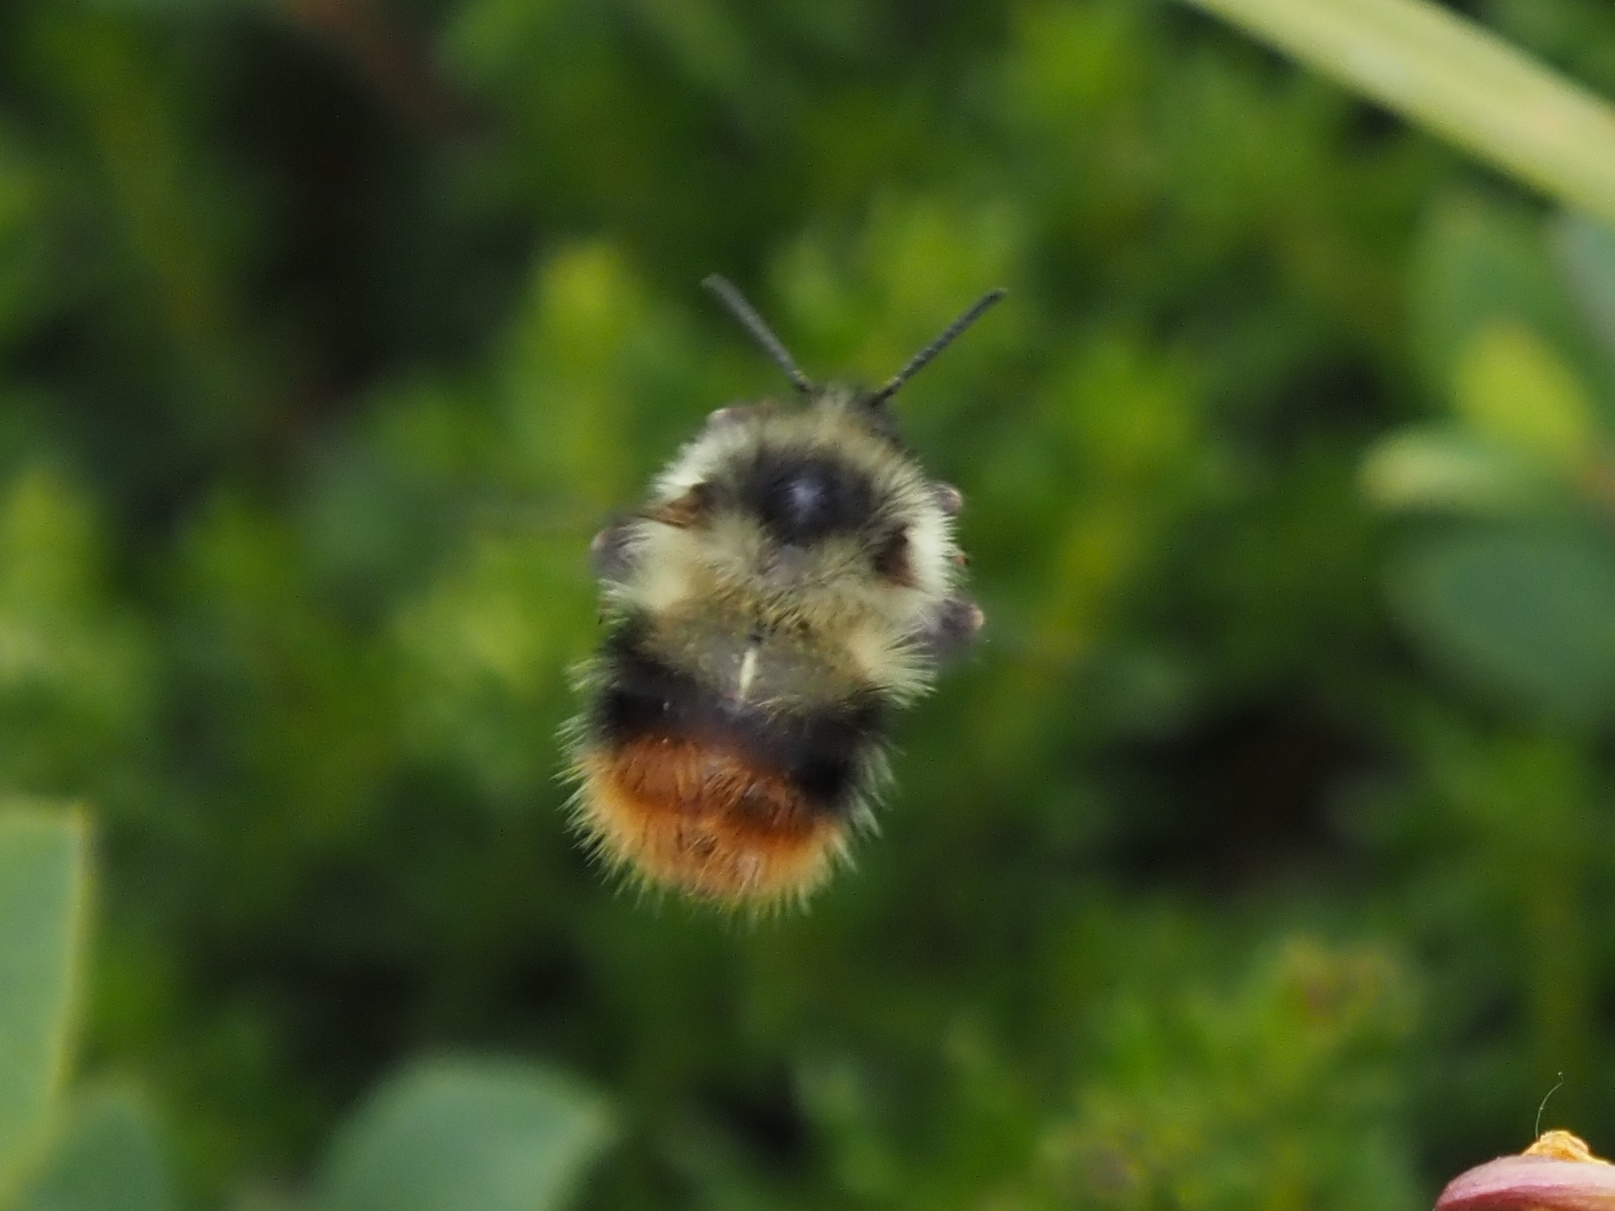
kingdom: Animalia
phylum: Arthropoda
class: Insecta
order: Hymenoptera
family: Apidae
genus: Bombus
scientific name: Bombus mixtus
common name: Fuzzy-horned bumble bee
